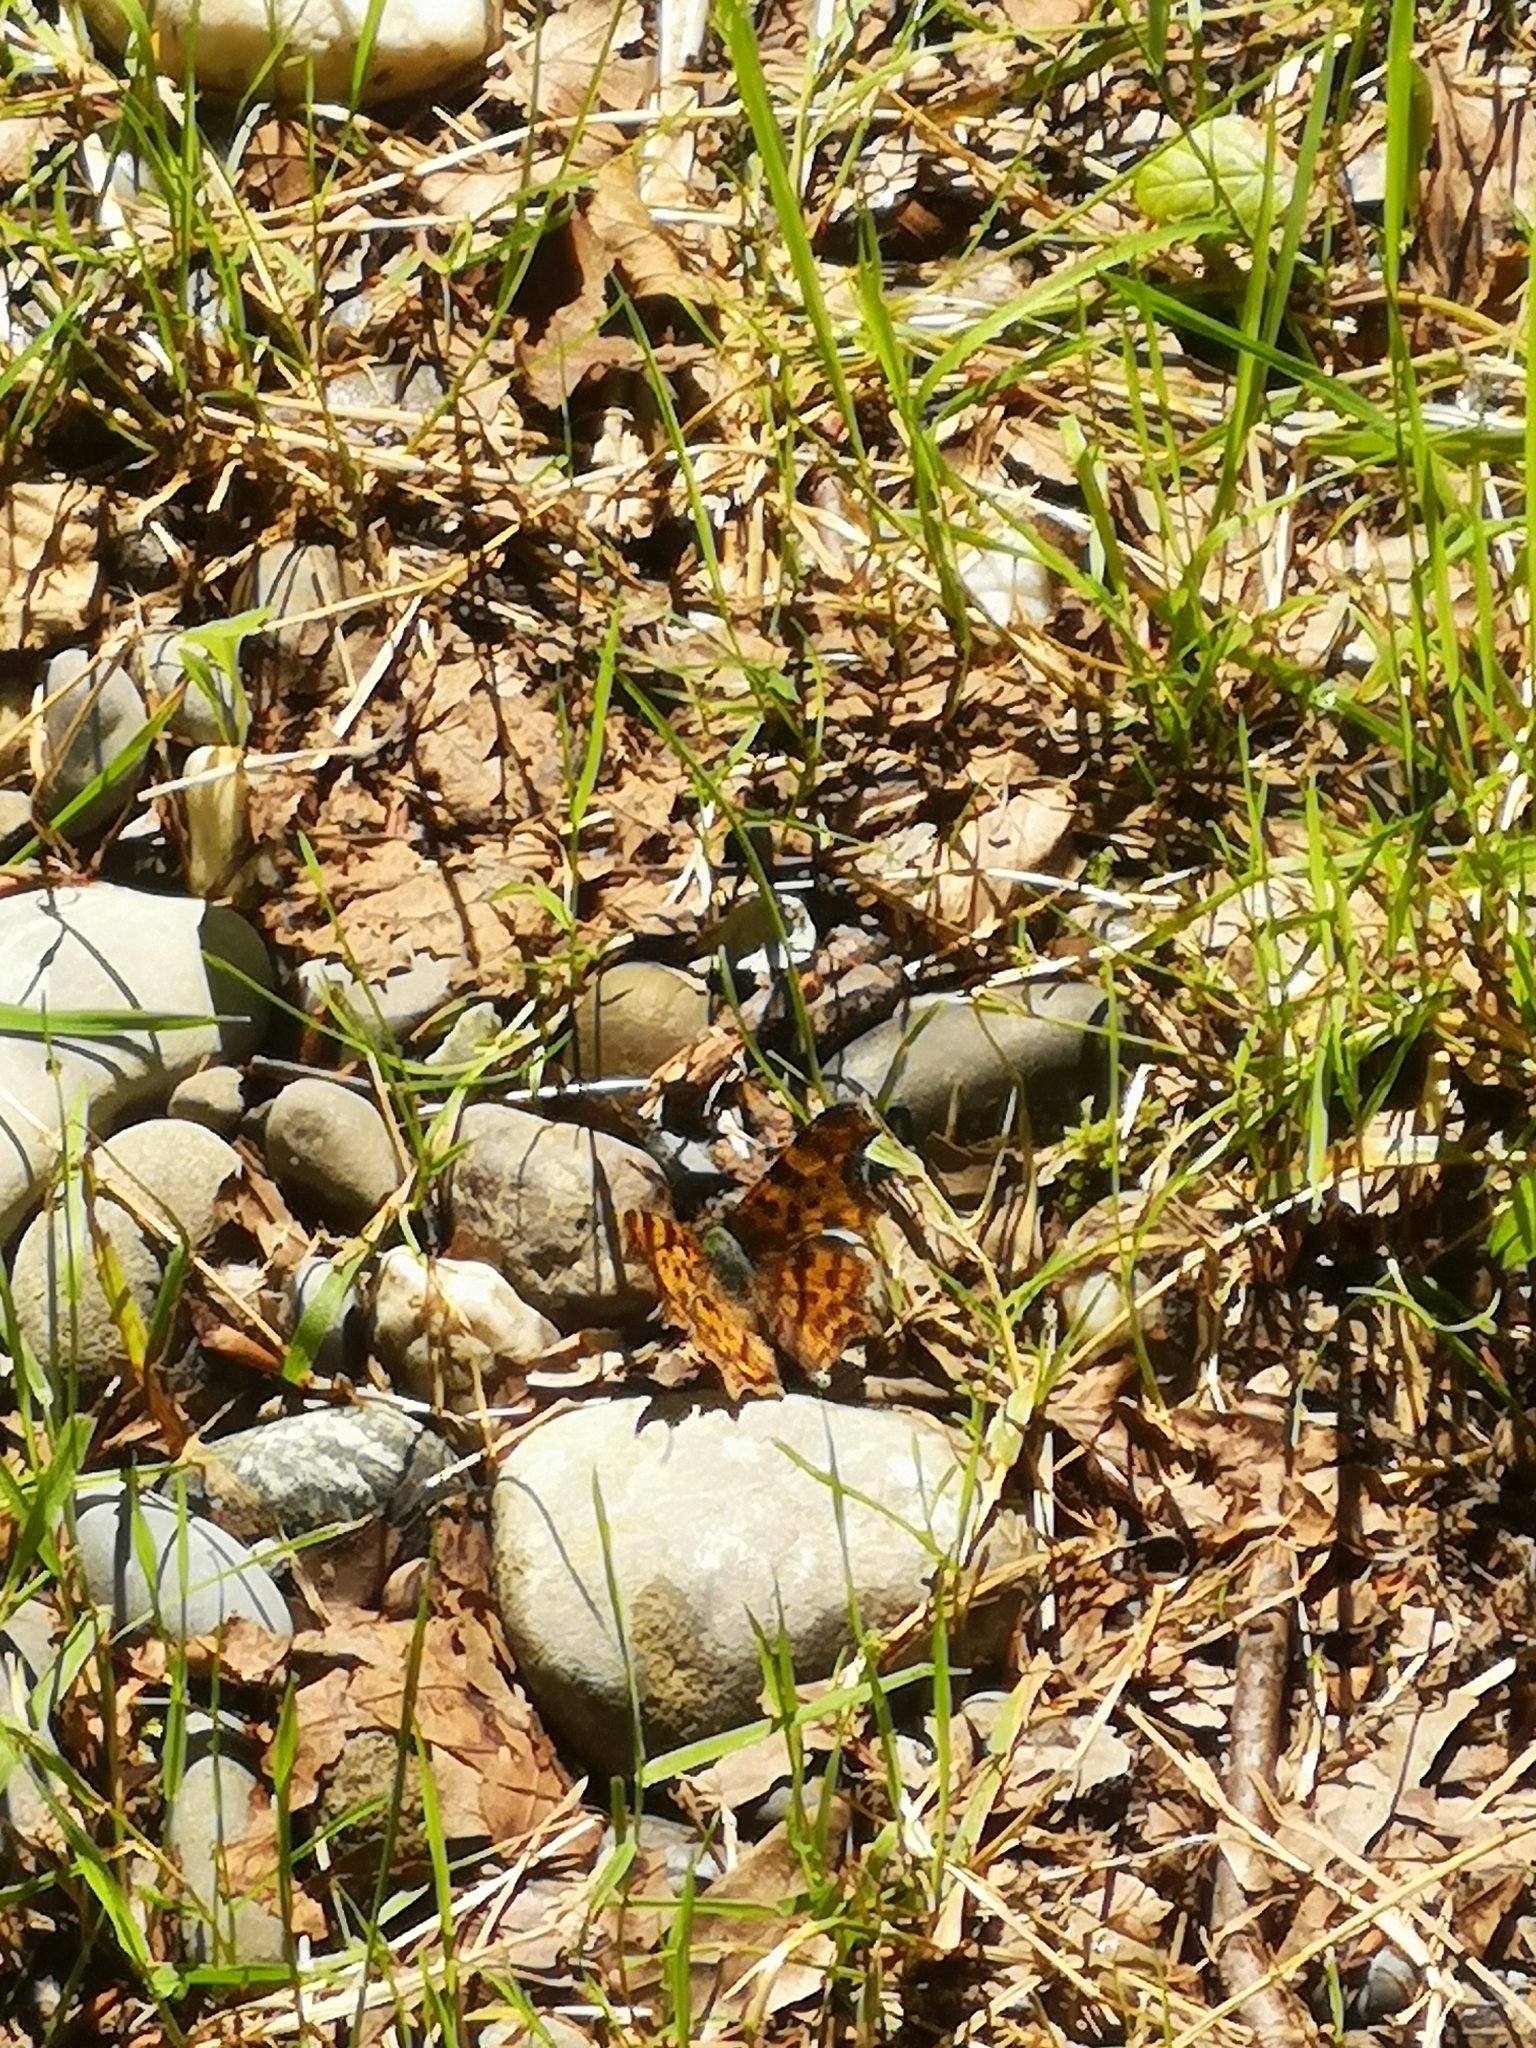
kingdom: Animalia
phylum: Arthropoda
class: Insecta
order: Lepidoptera
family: Nymphalidae
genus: Polygonia
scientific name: Polygonia c-album
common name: Comma
